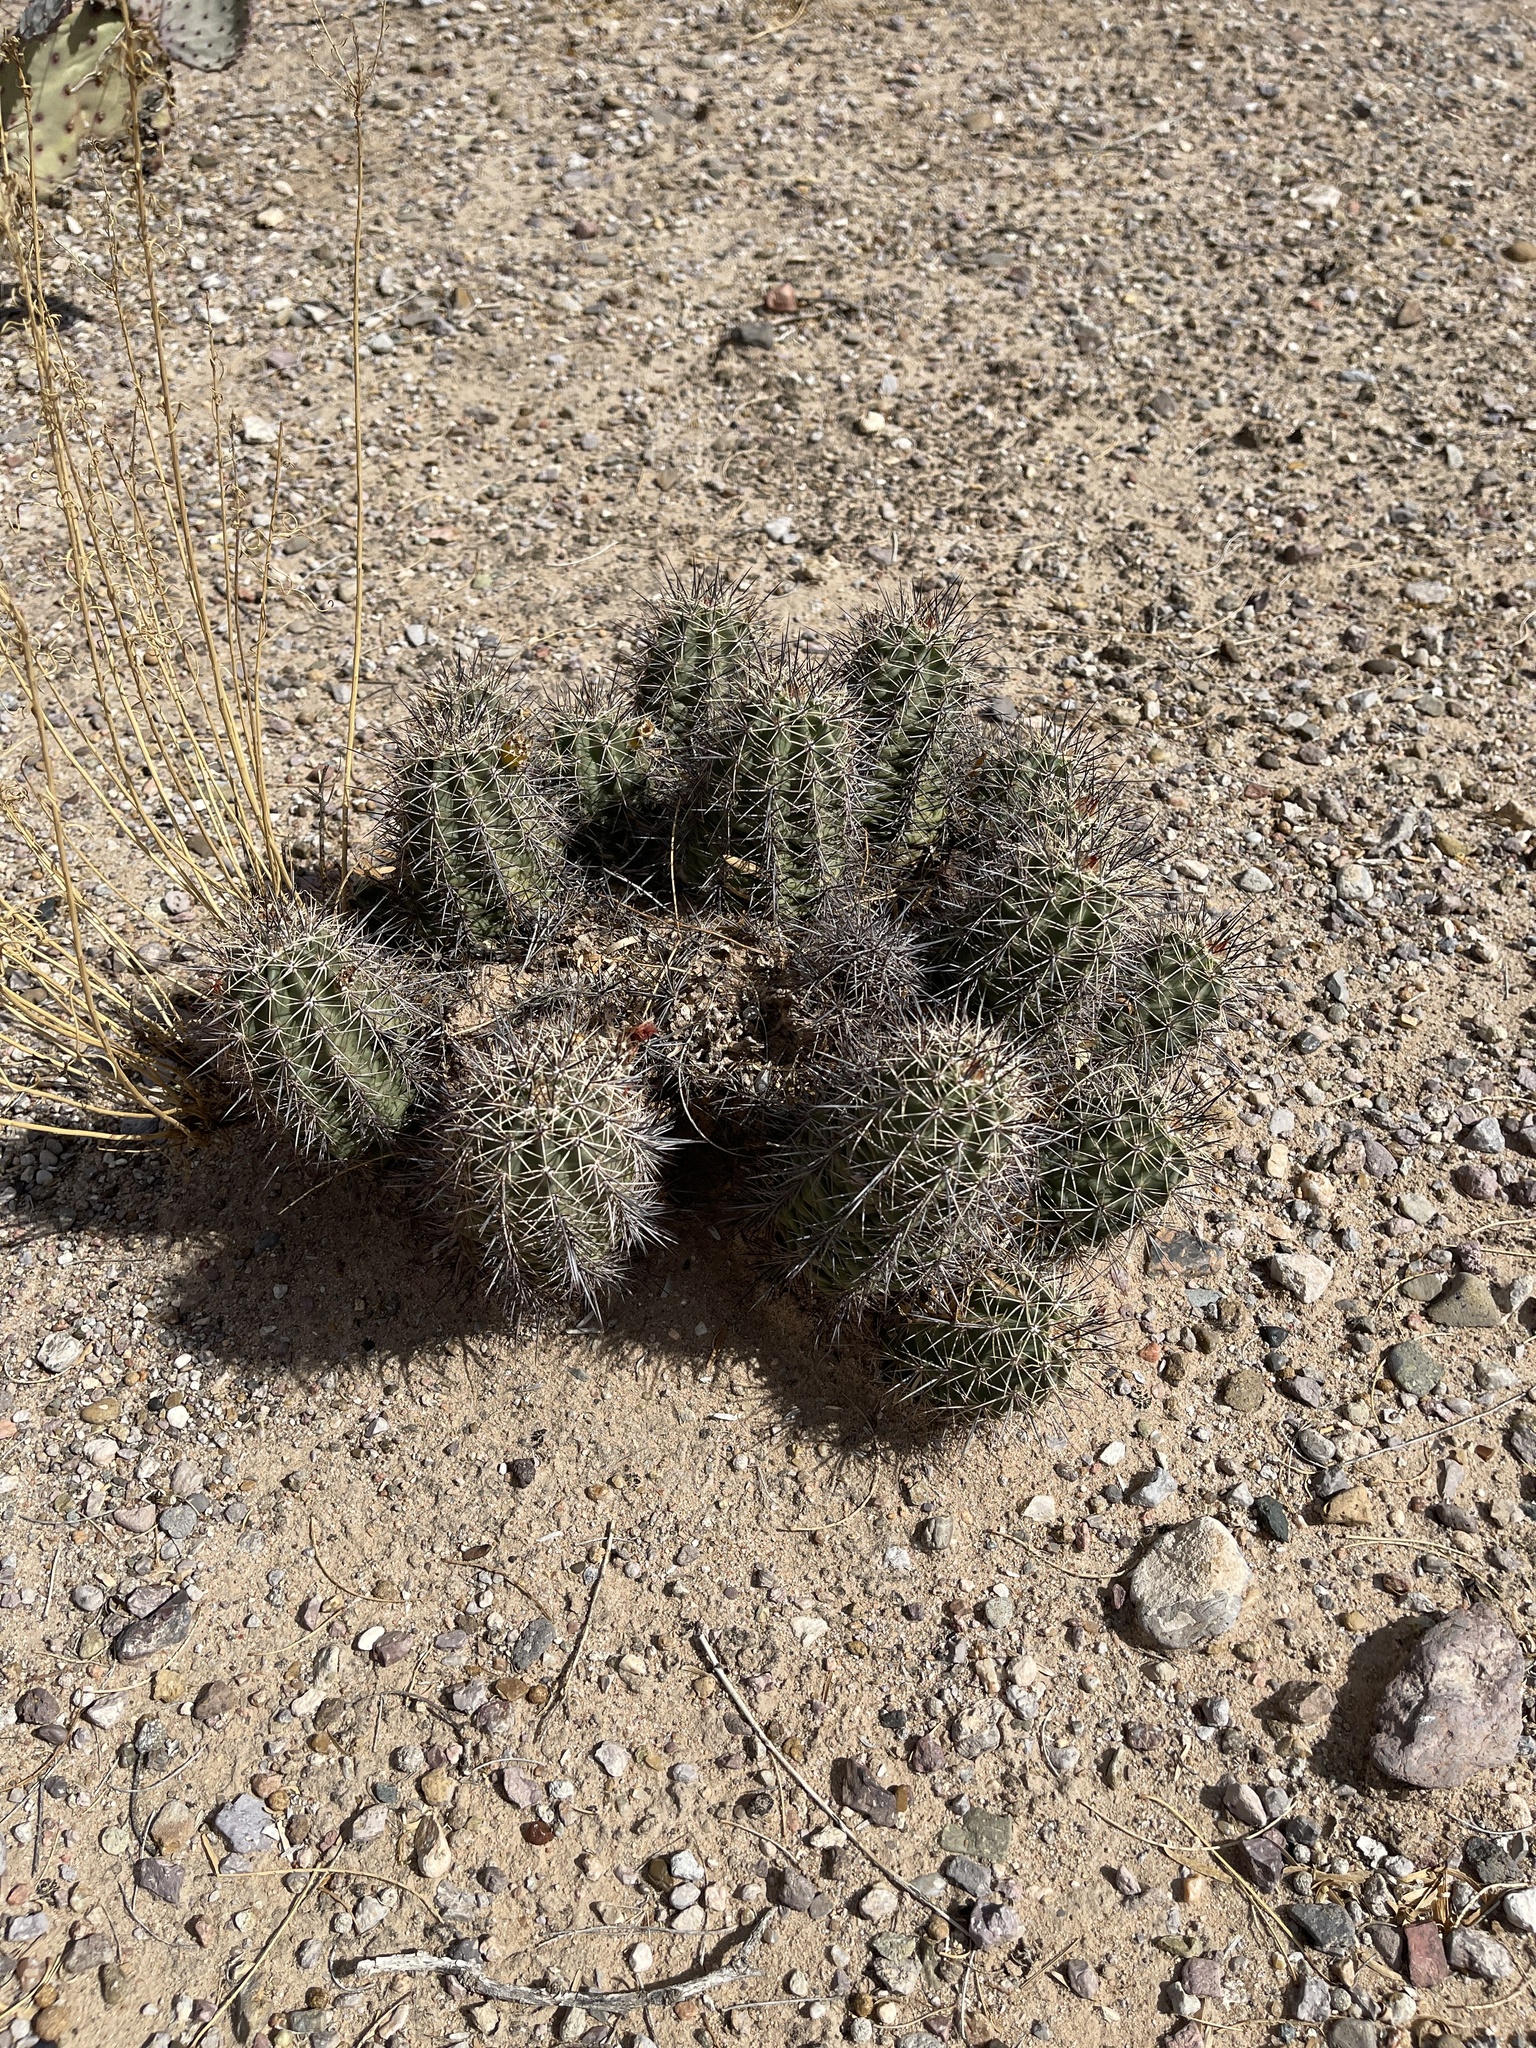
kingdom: Plantae
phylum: Tracheophyta
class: Magnoliopsida
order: Caryophyllales
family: Cactaceae
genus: Echinocereus
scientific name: Echinocereus coccineus
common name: Scarlet hedgehog cactus
